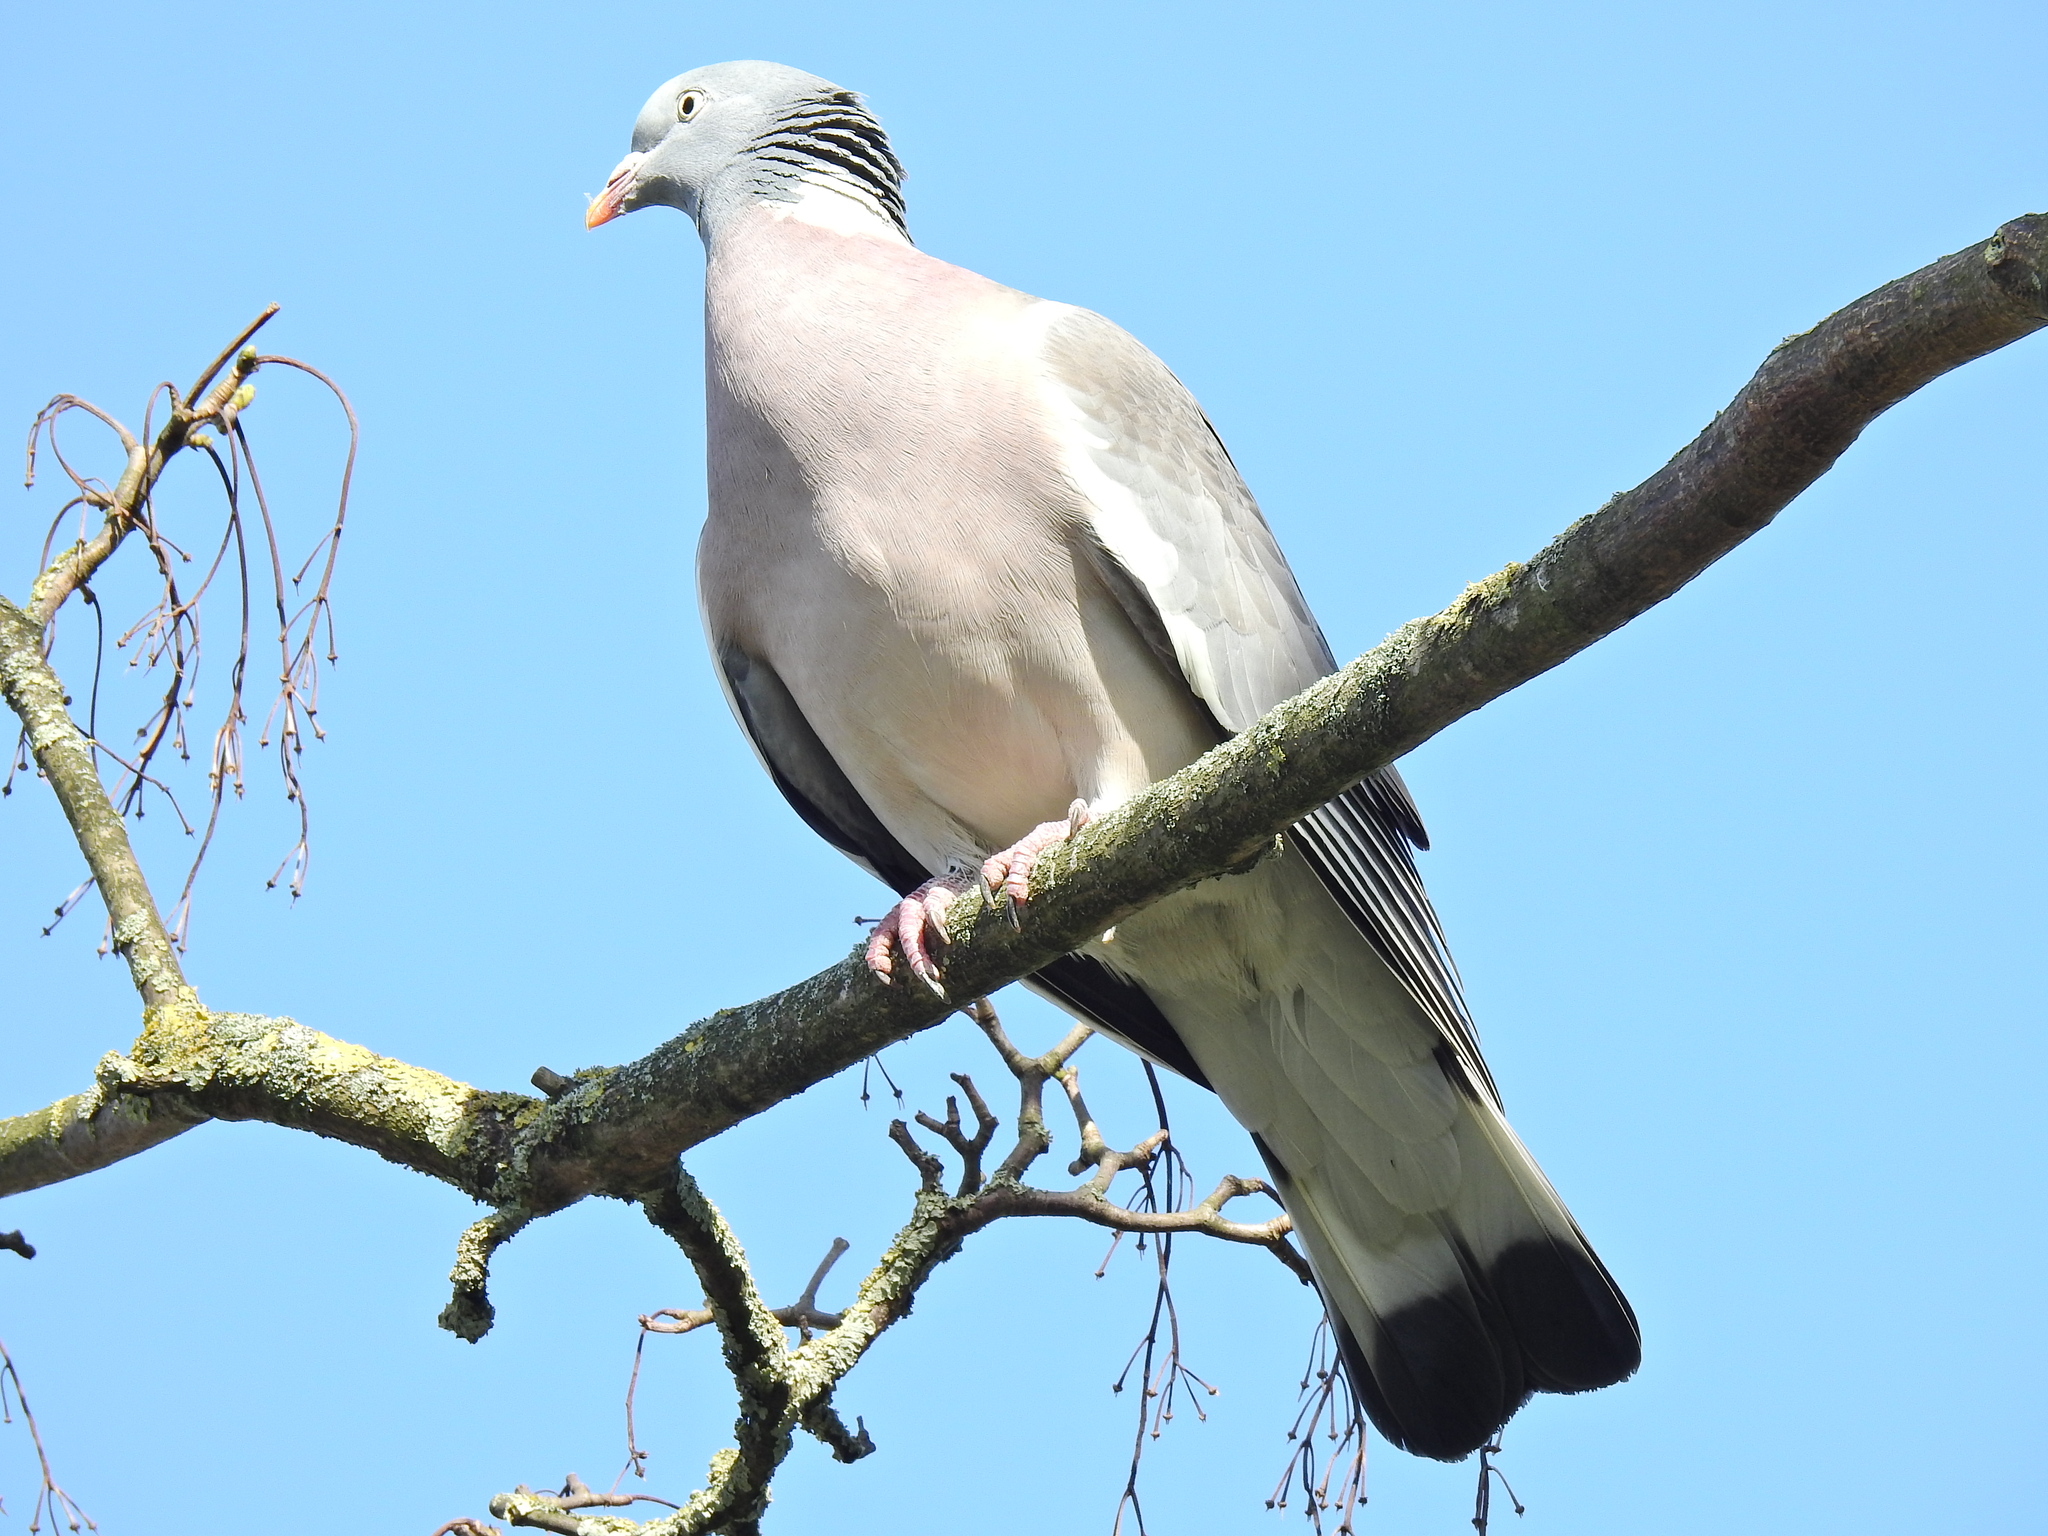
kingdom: Animalia
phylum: Chordata
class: Aves
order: Columbiformes
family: Columbidae
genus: Columba
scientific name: Columba palumbus
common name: Common wood pigeon
